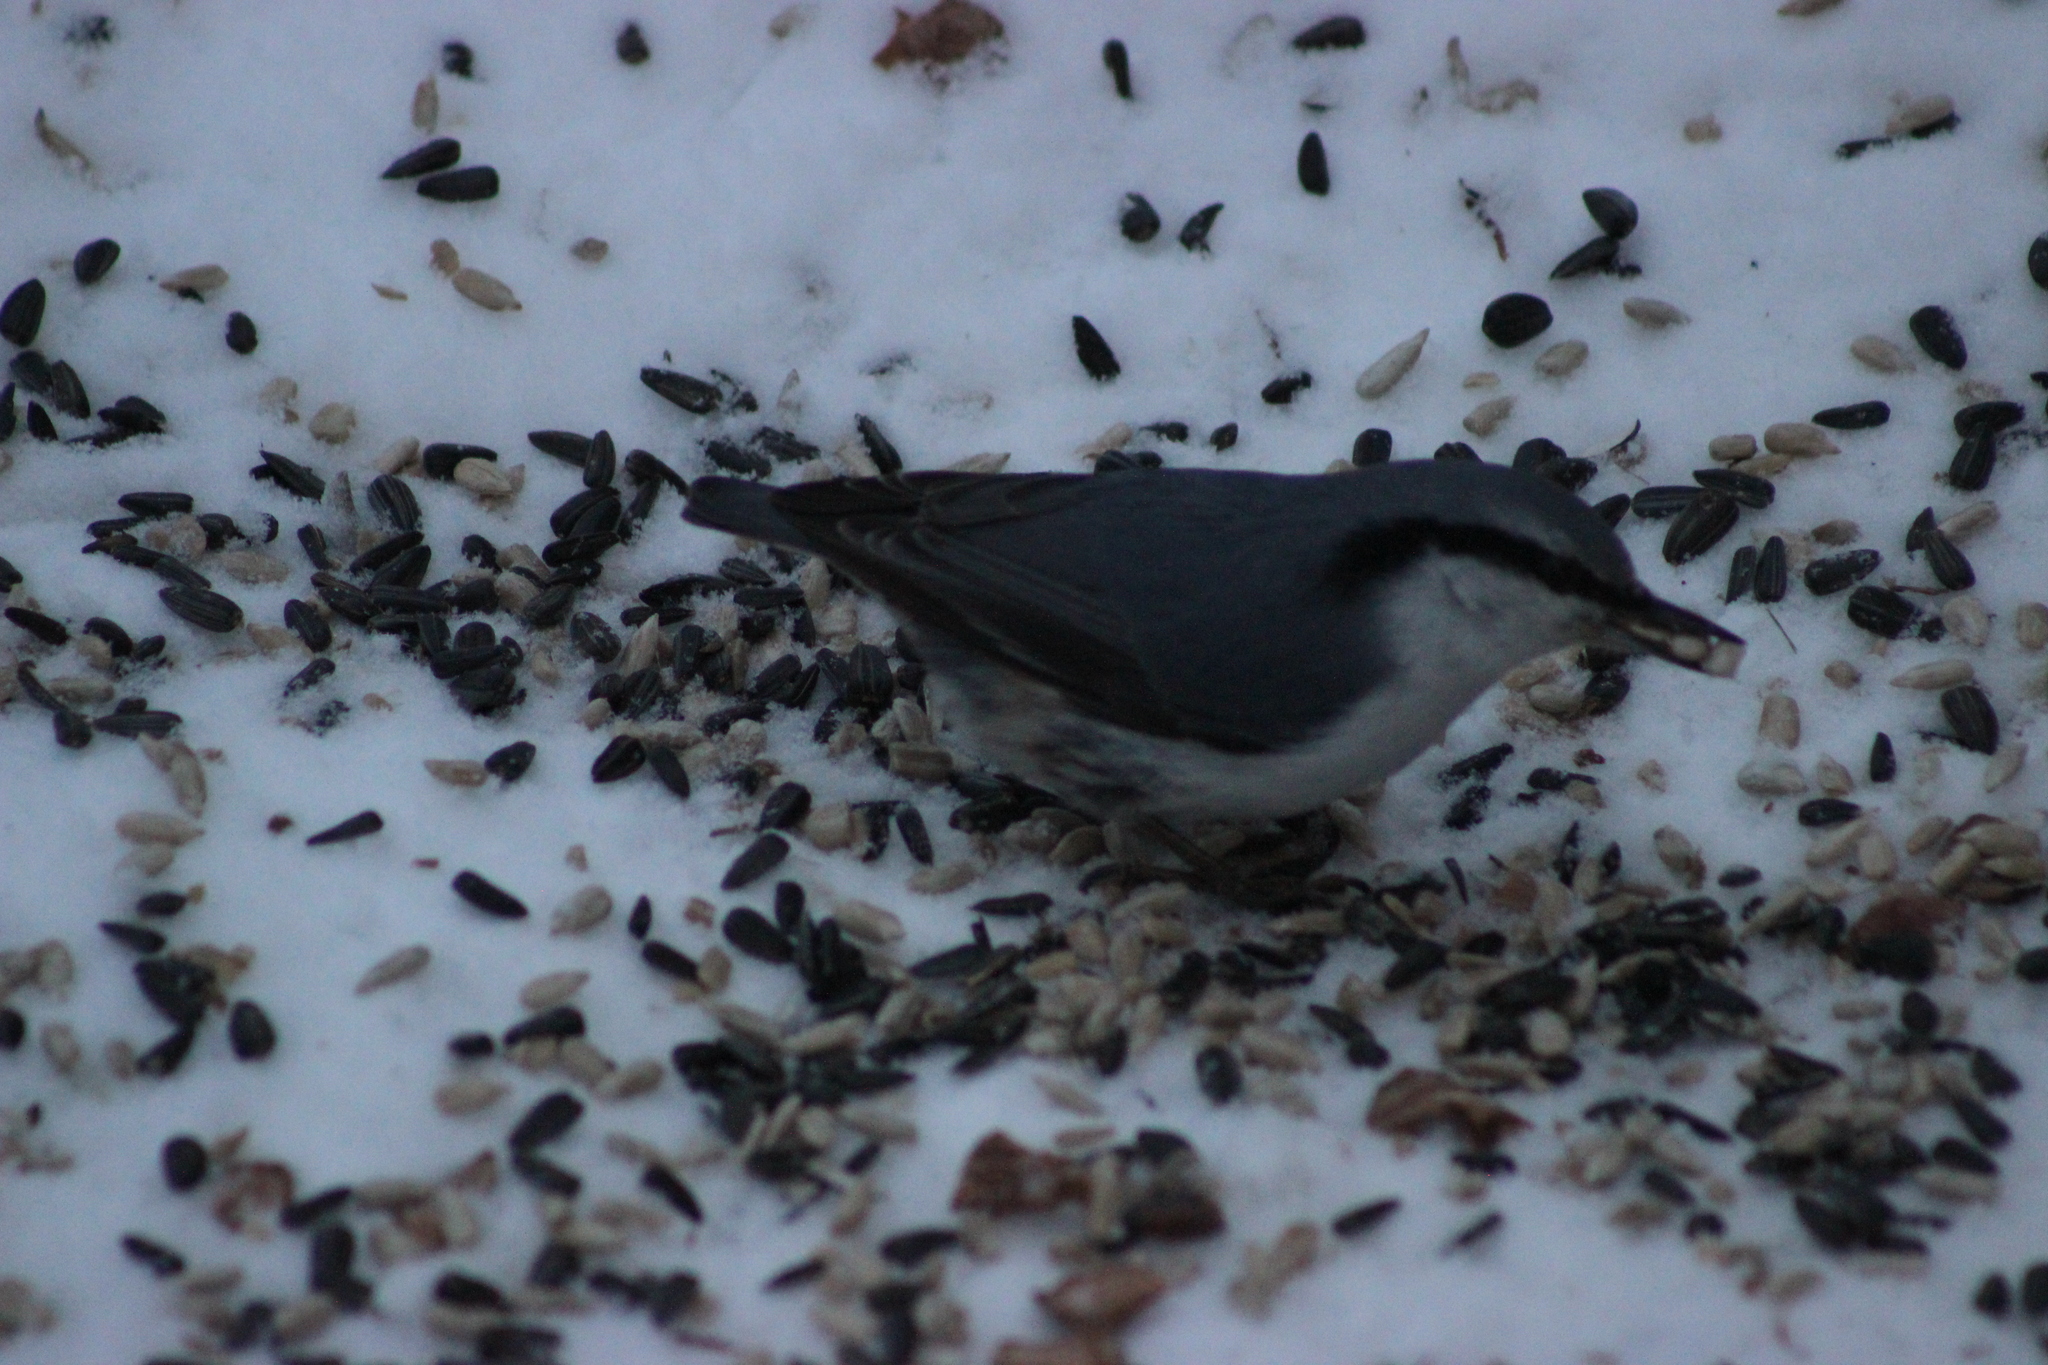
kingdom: Animalia
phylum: Chordata
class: Aves
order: Passeriformes
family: Sittidae
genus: Sitta
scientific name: Sitta europaea
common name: Eurasian nuthatch
